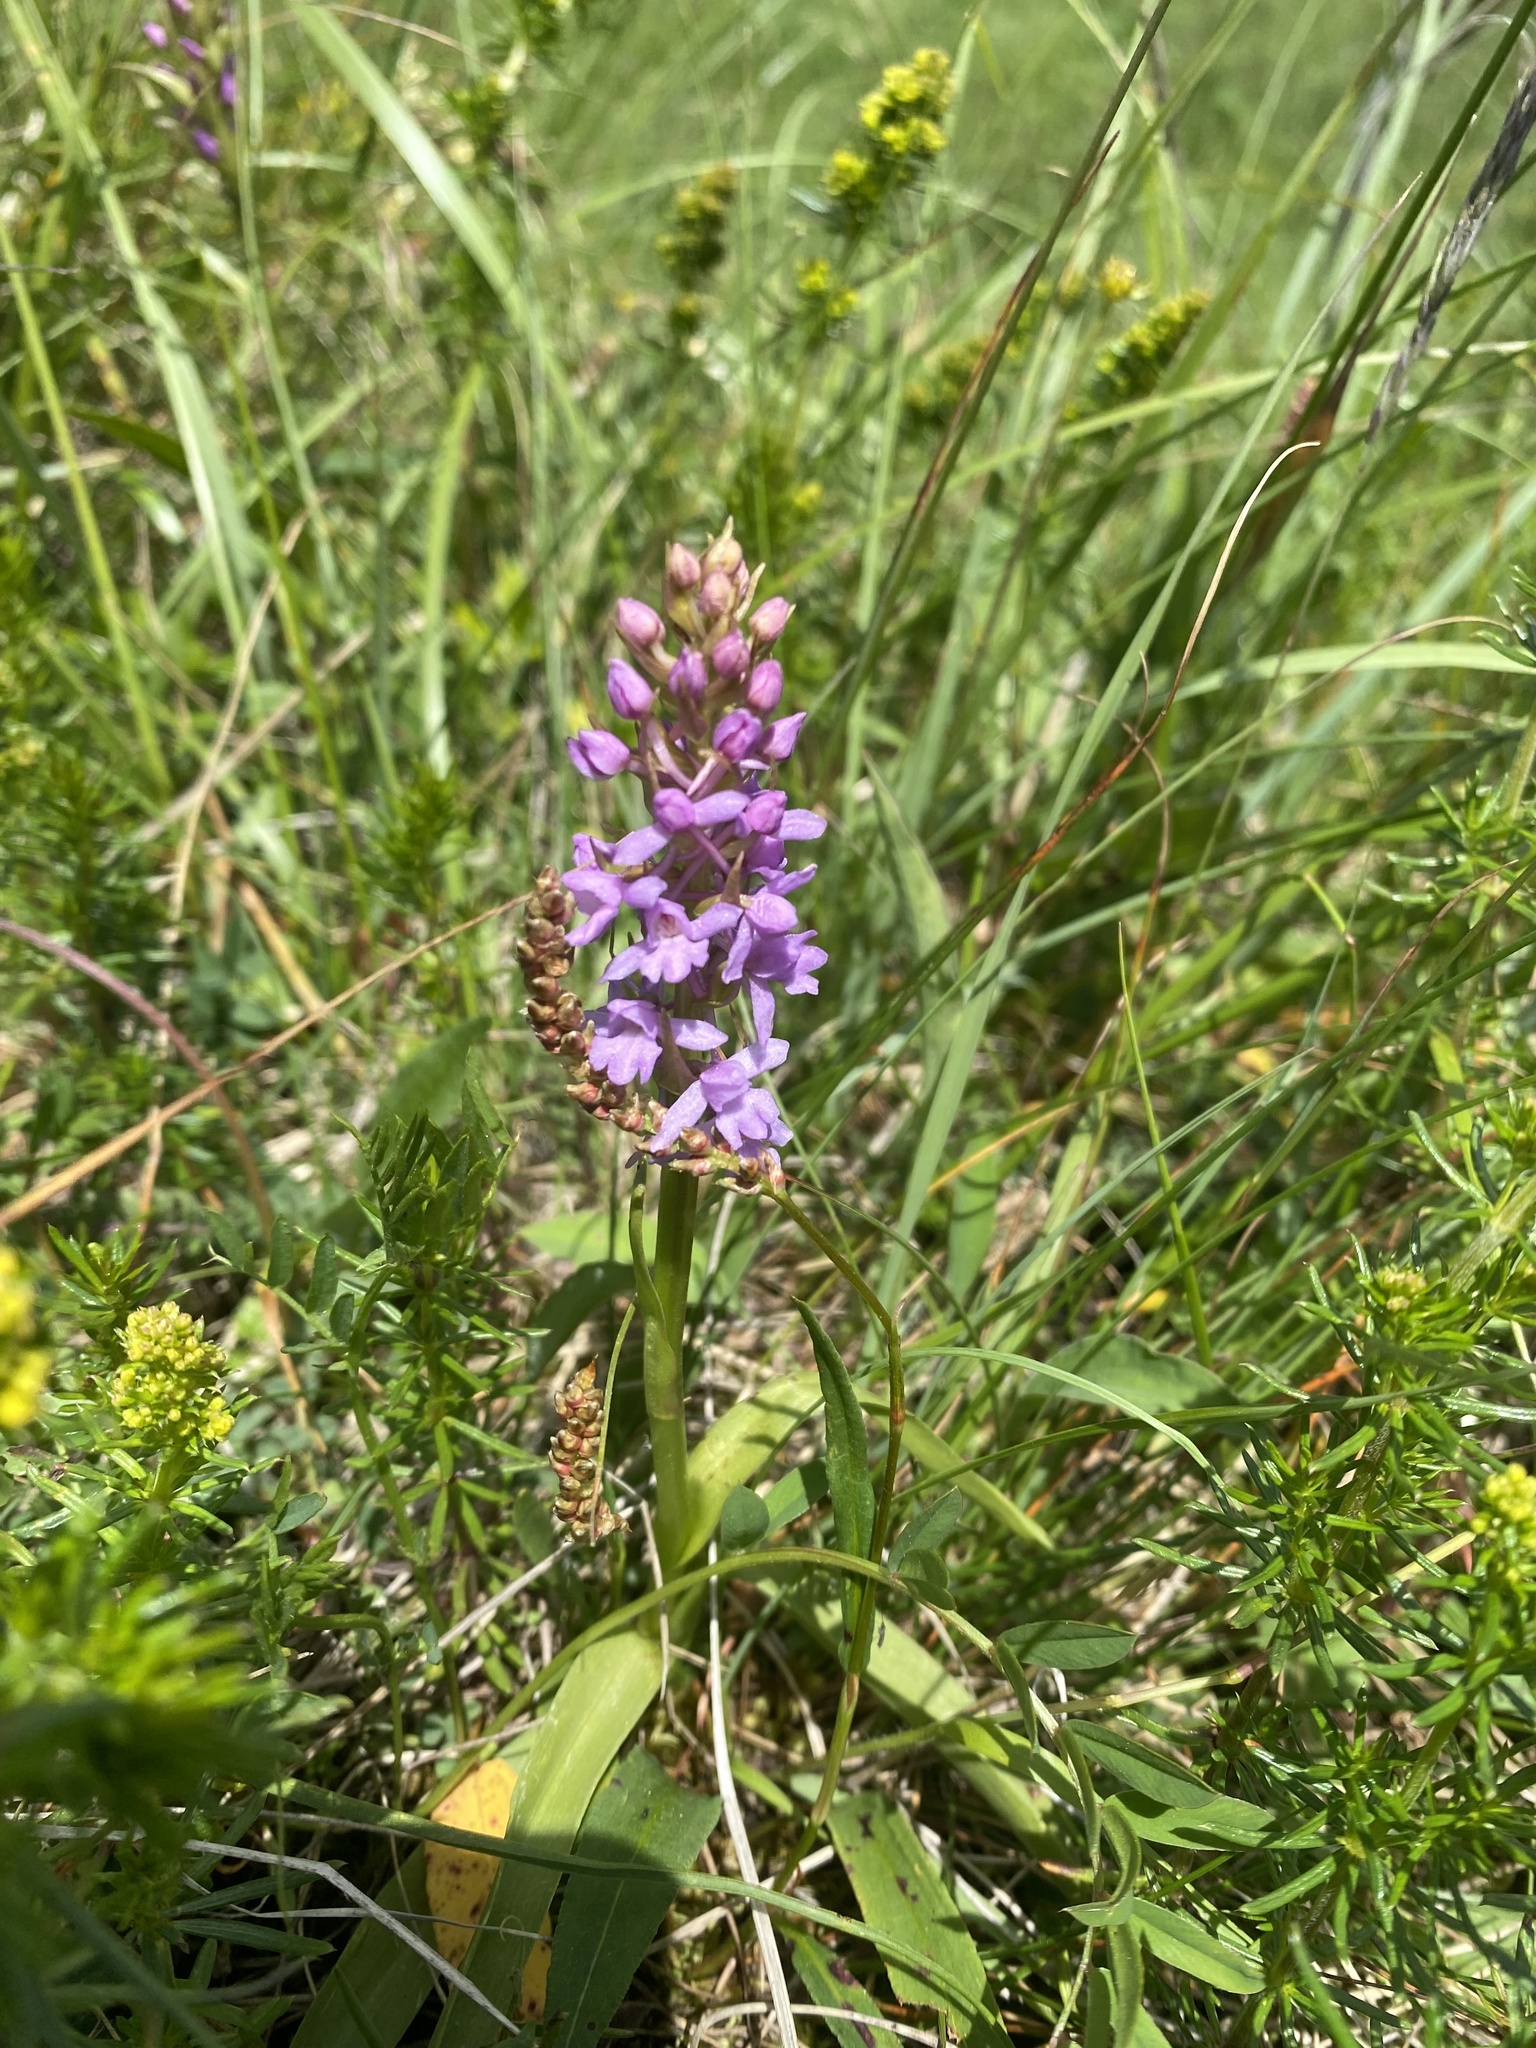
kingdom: Plantae
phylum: Tracheophyta
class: Liliopsida
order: Asparagales
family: Orchidaceae
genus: Gymnadenia
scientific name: Gymnadenia conopsea
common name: Fragrant orchid
